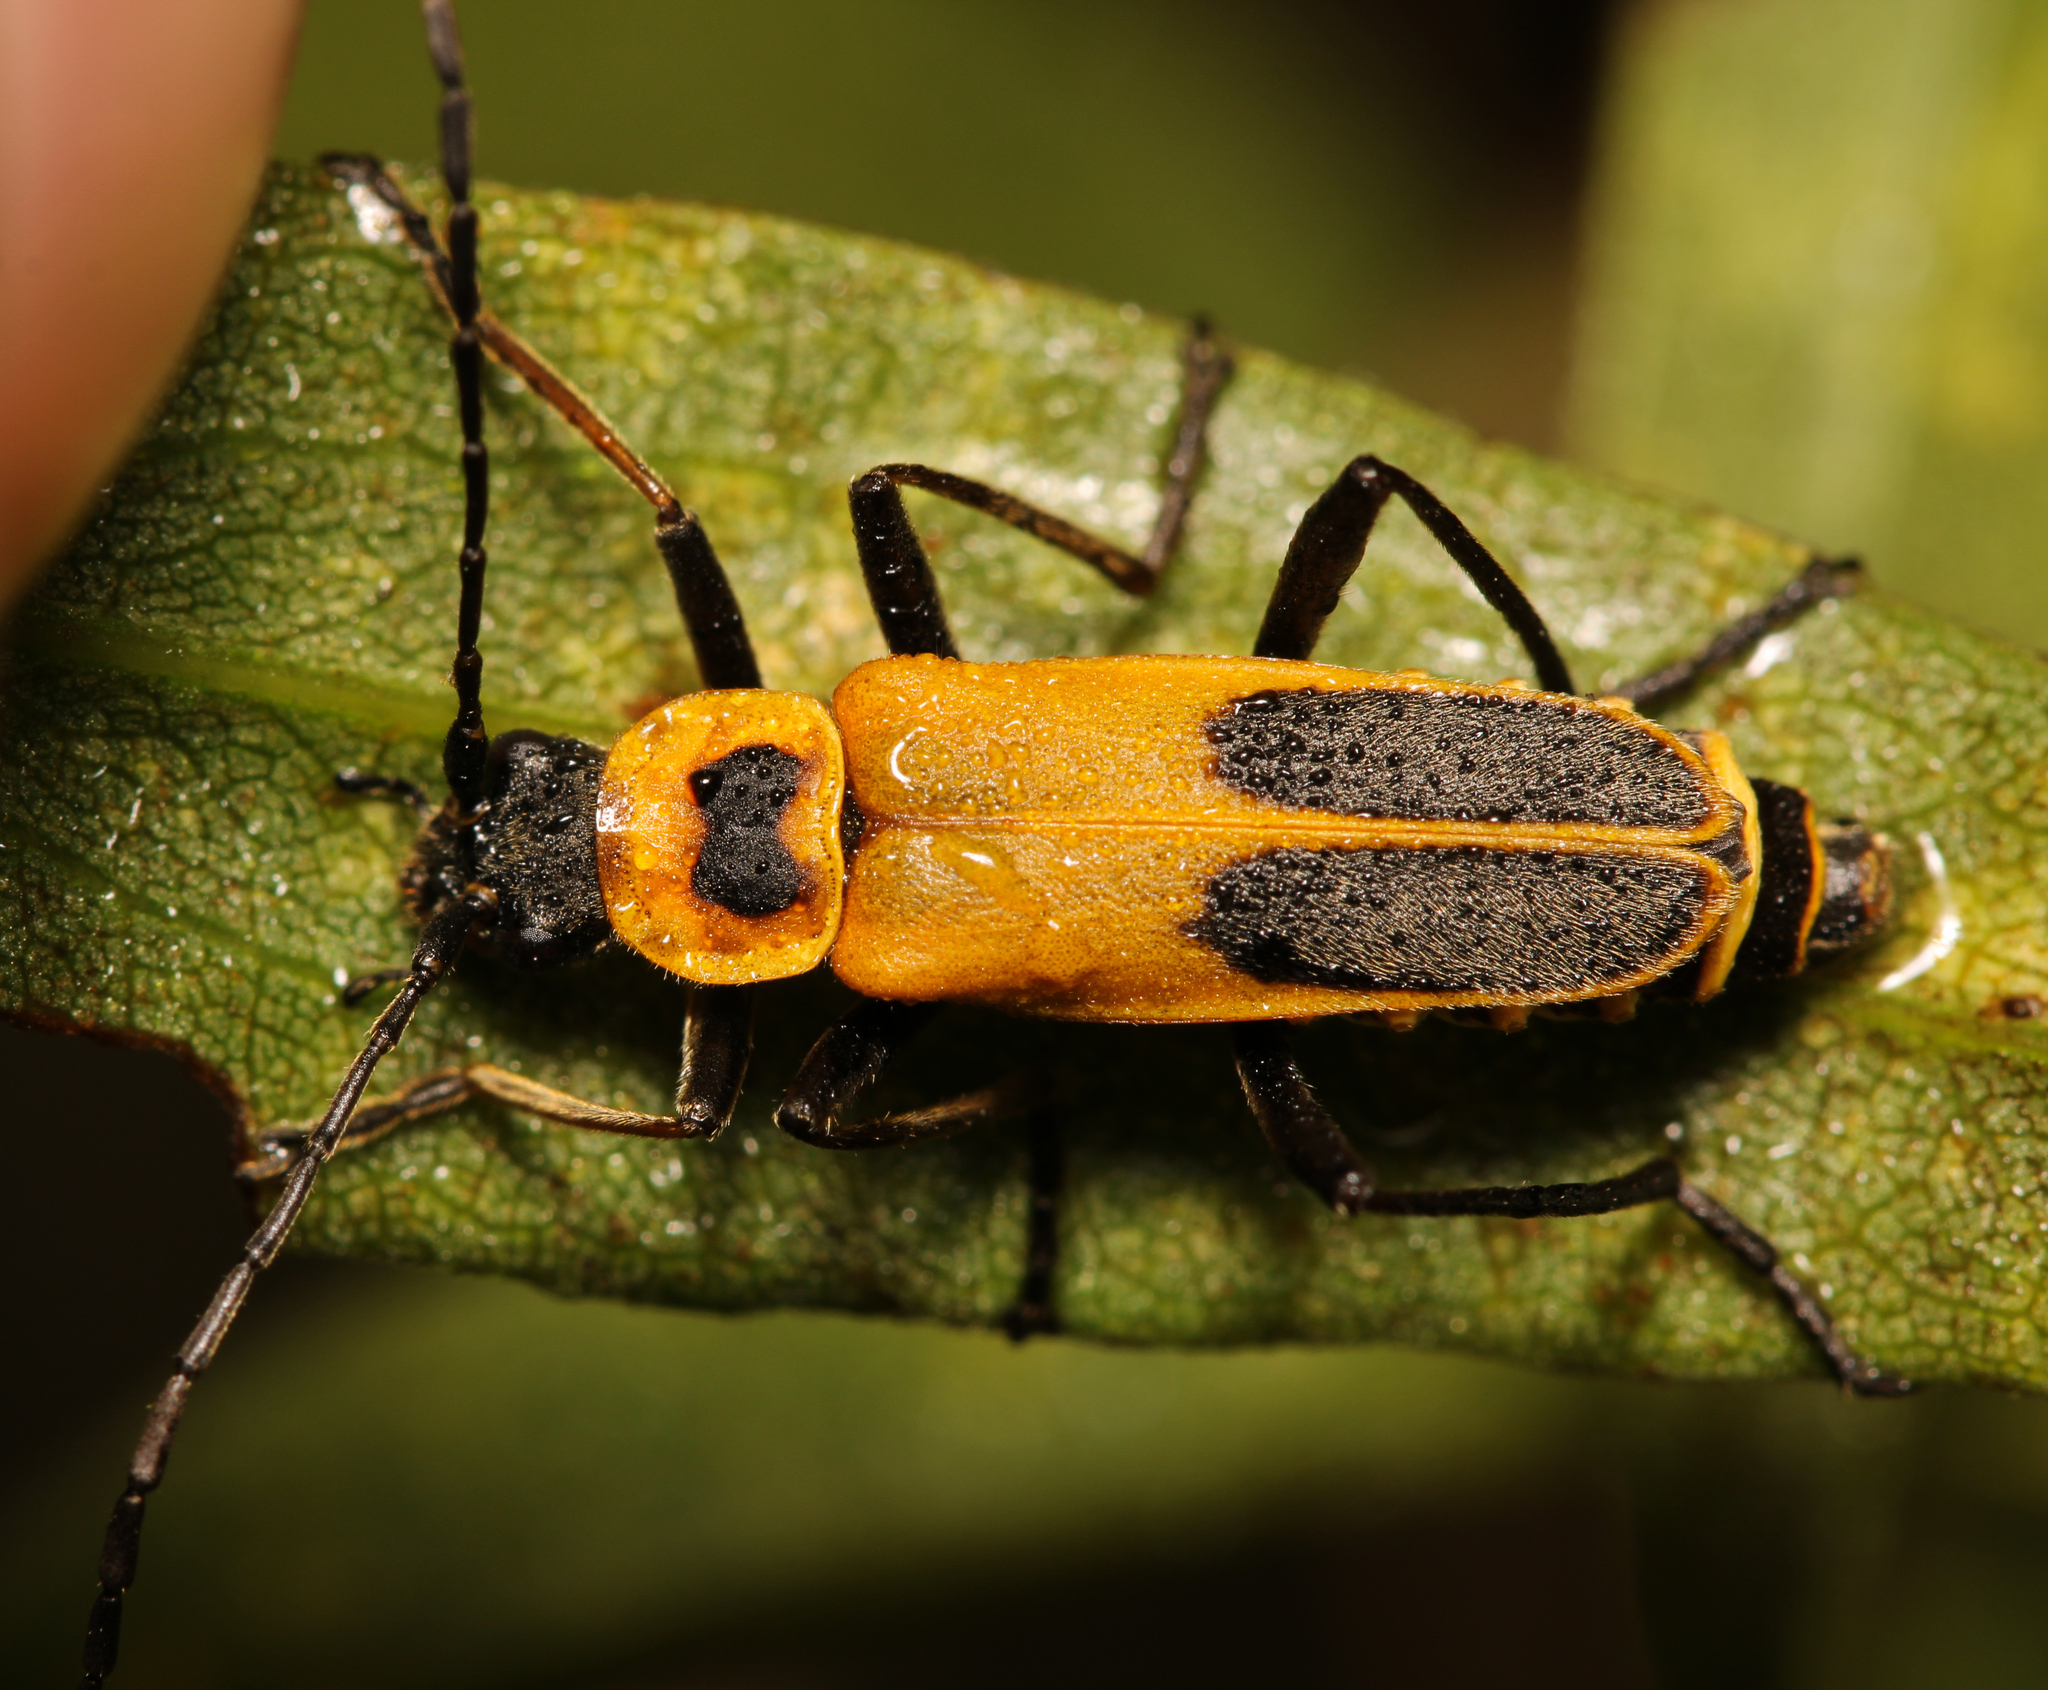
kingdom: Animalia
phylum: Arthropoda
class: Insecta
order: Coleoptera
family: Cantharidae
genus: Chauliognathus
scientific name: Chauliognathus pensylvanicus
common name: Goldenrod soldier beetle
